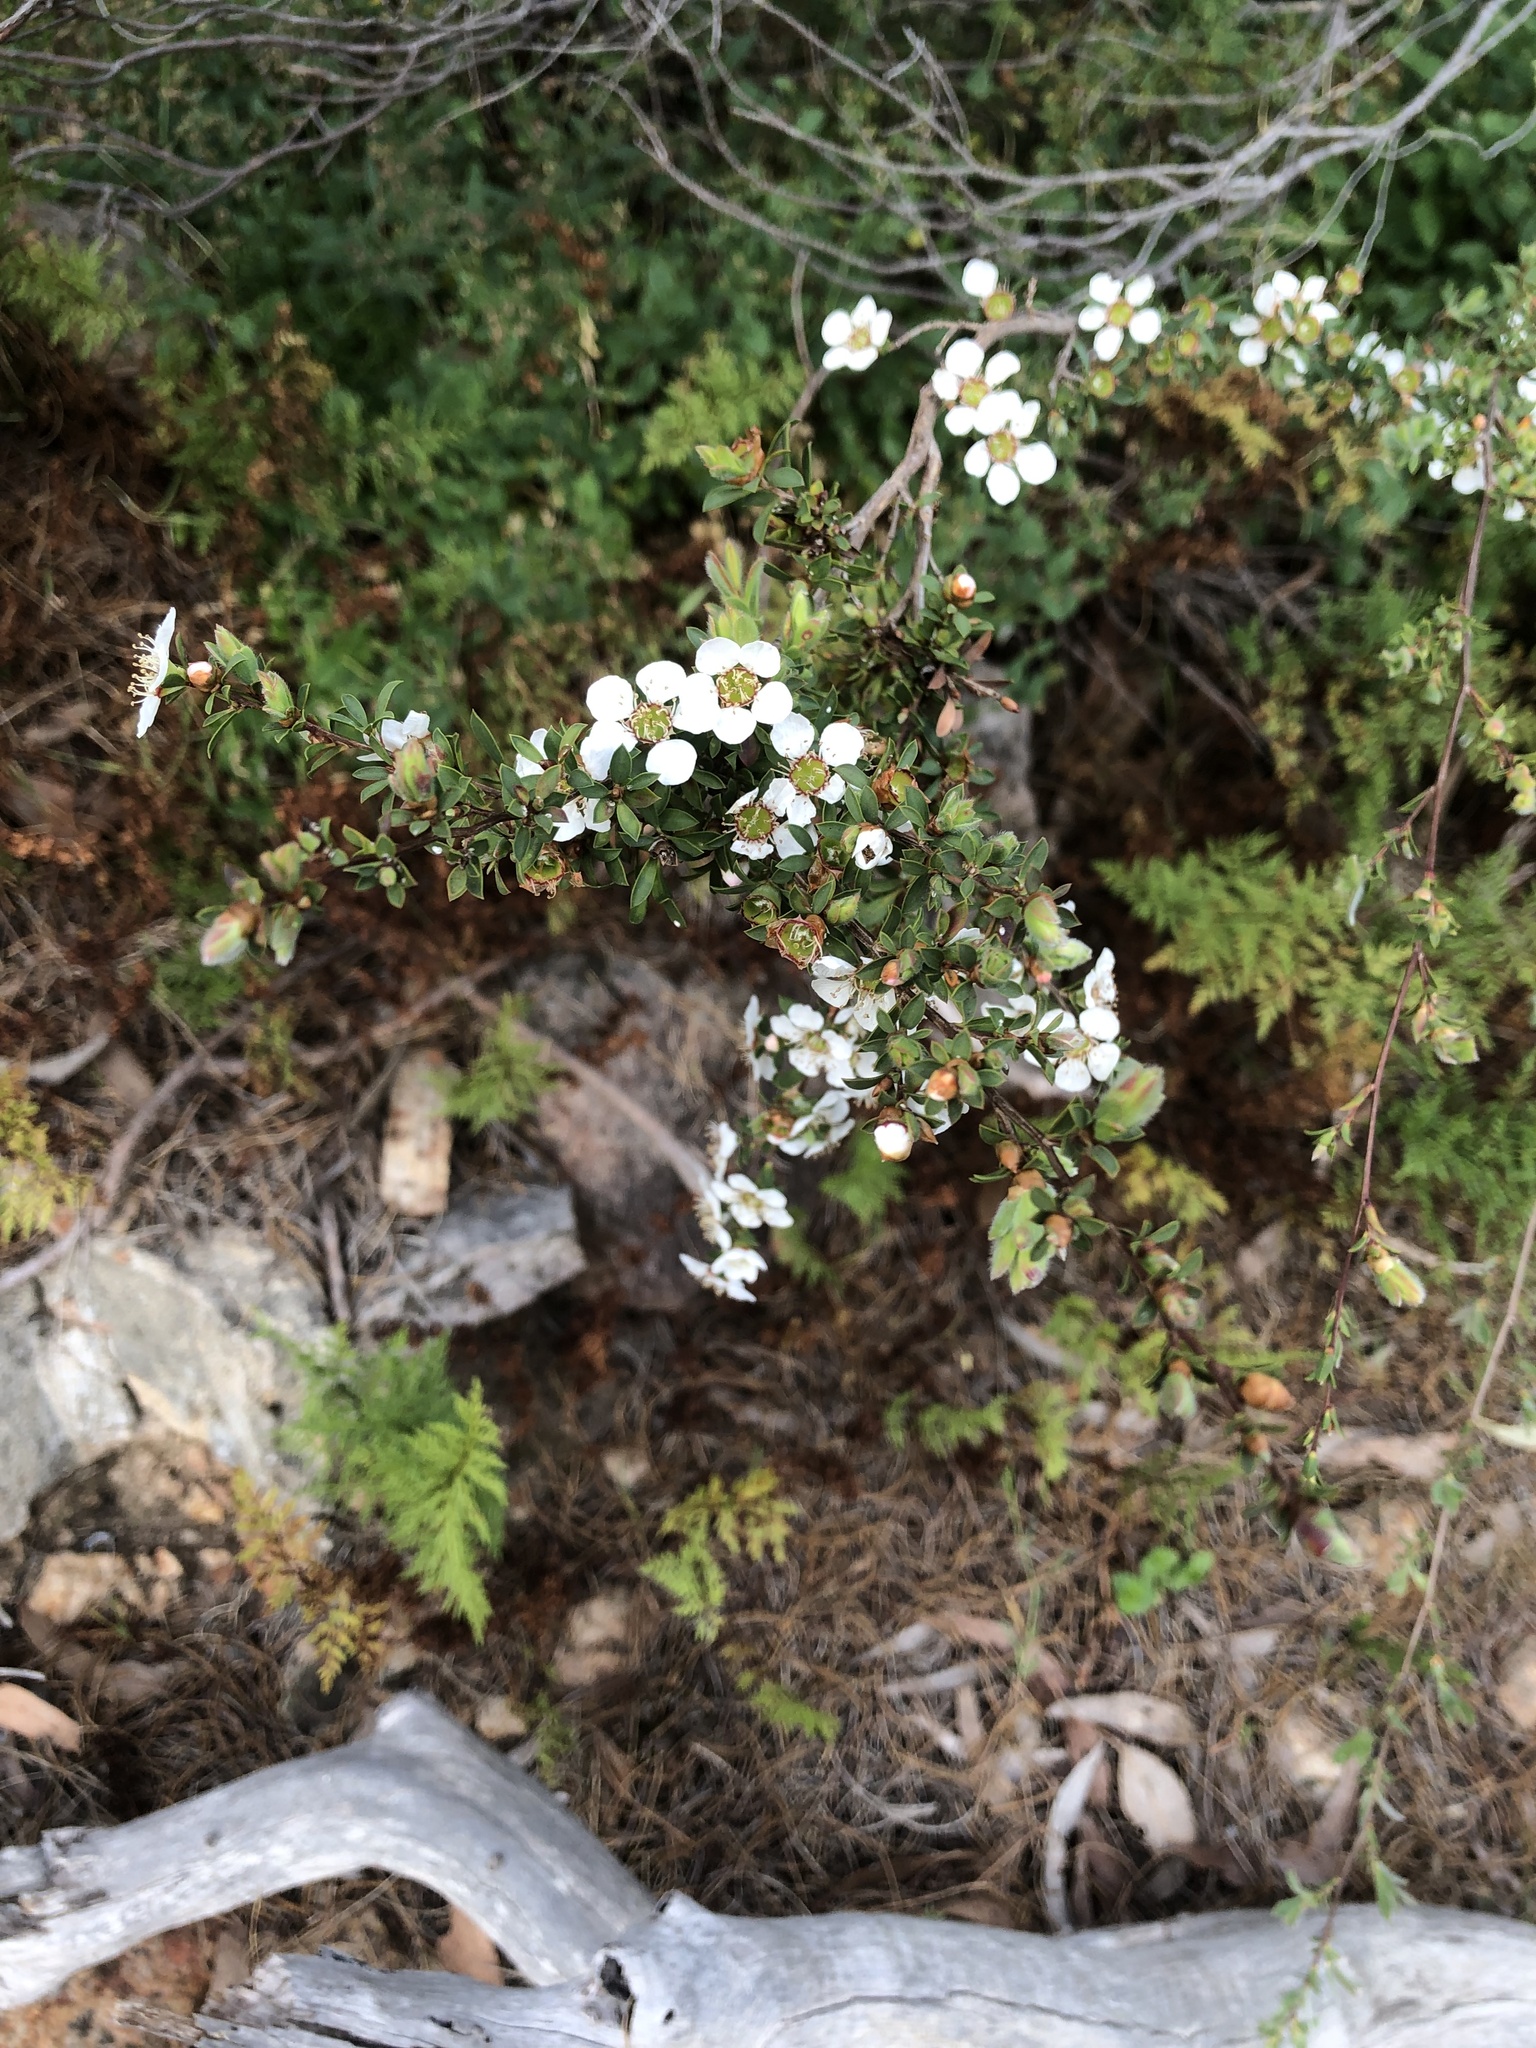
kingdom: Plantae
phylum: Tracheophyta
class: Magnoliopsida
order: Myrtales
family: Myrtaceae
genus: Leptospermum
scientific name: Leptospermum myrsinoides
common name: Heath teatree
